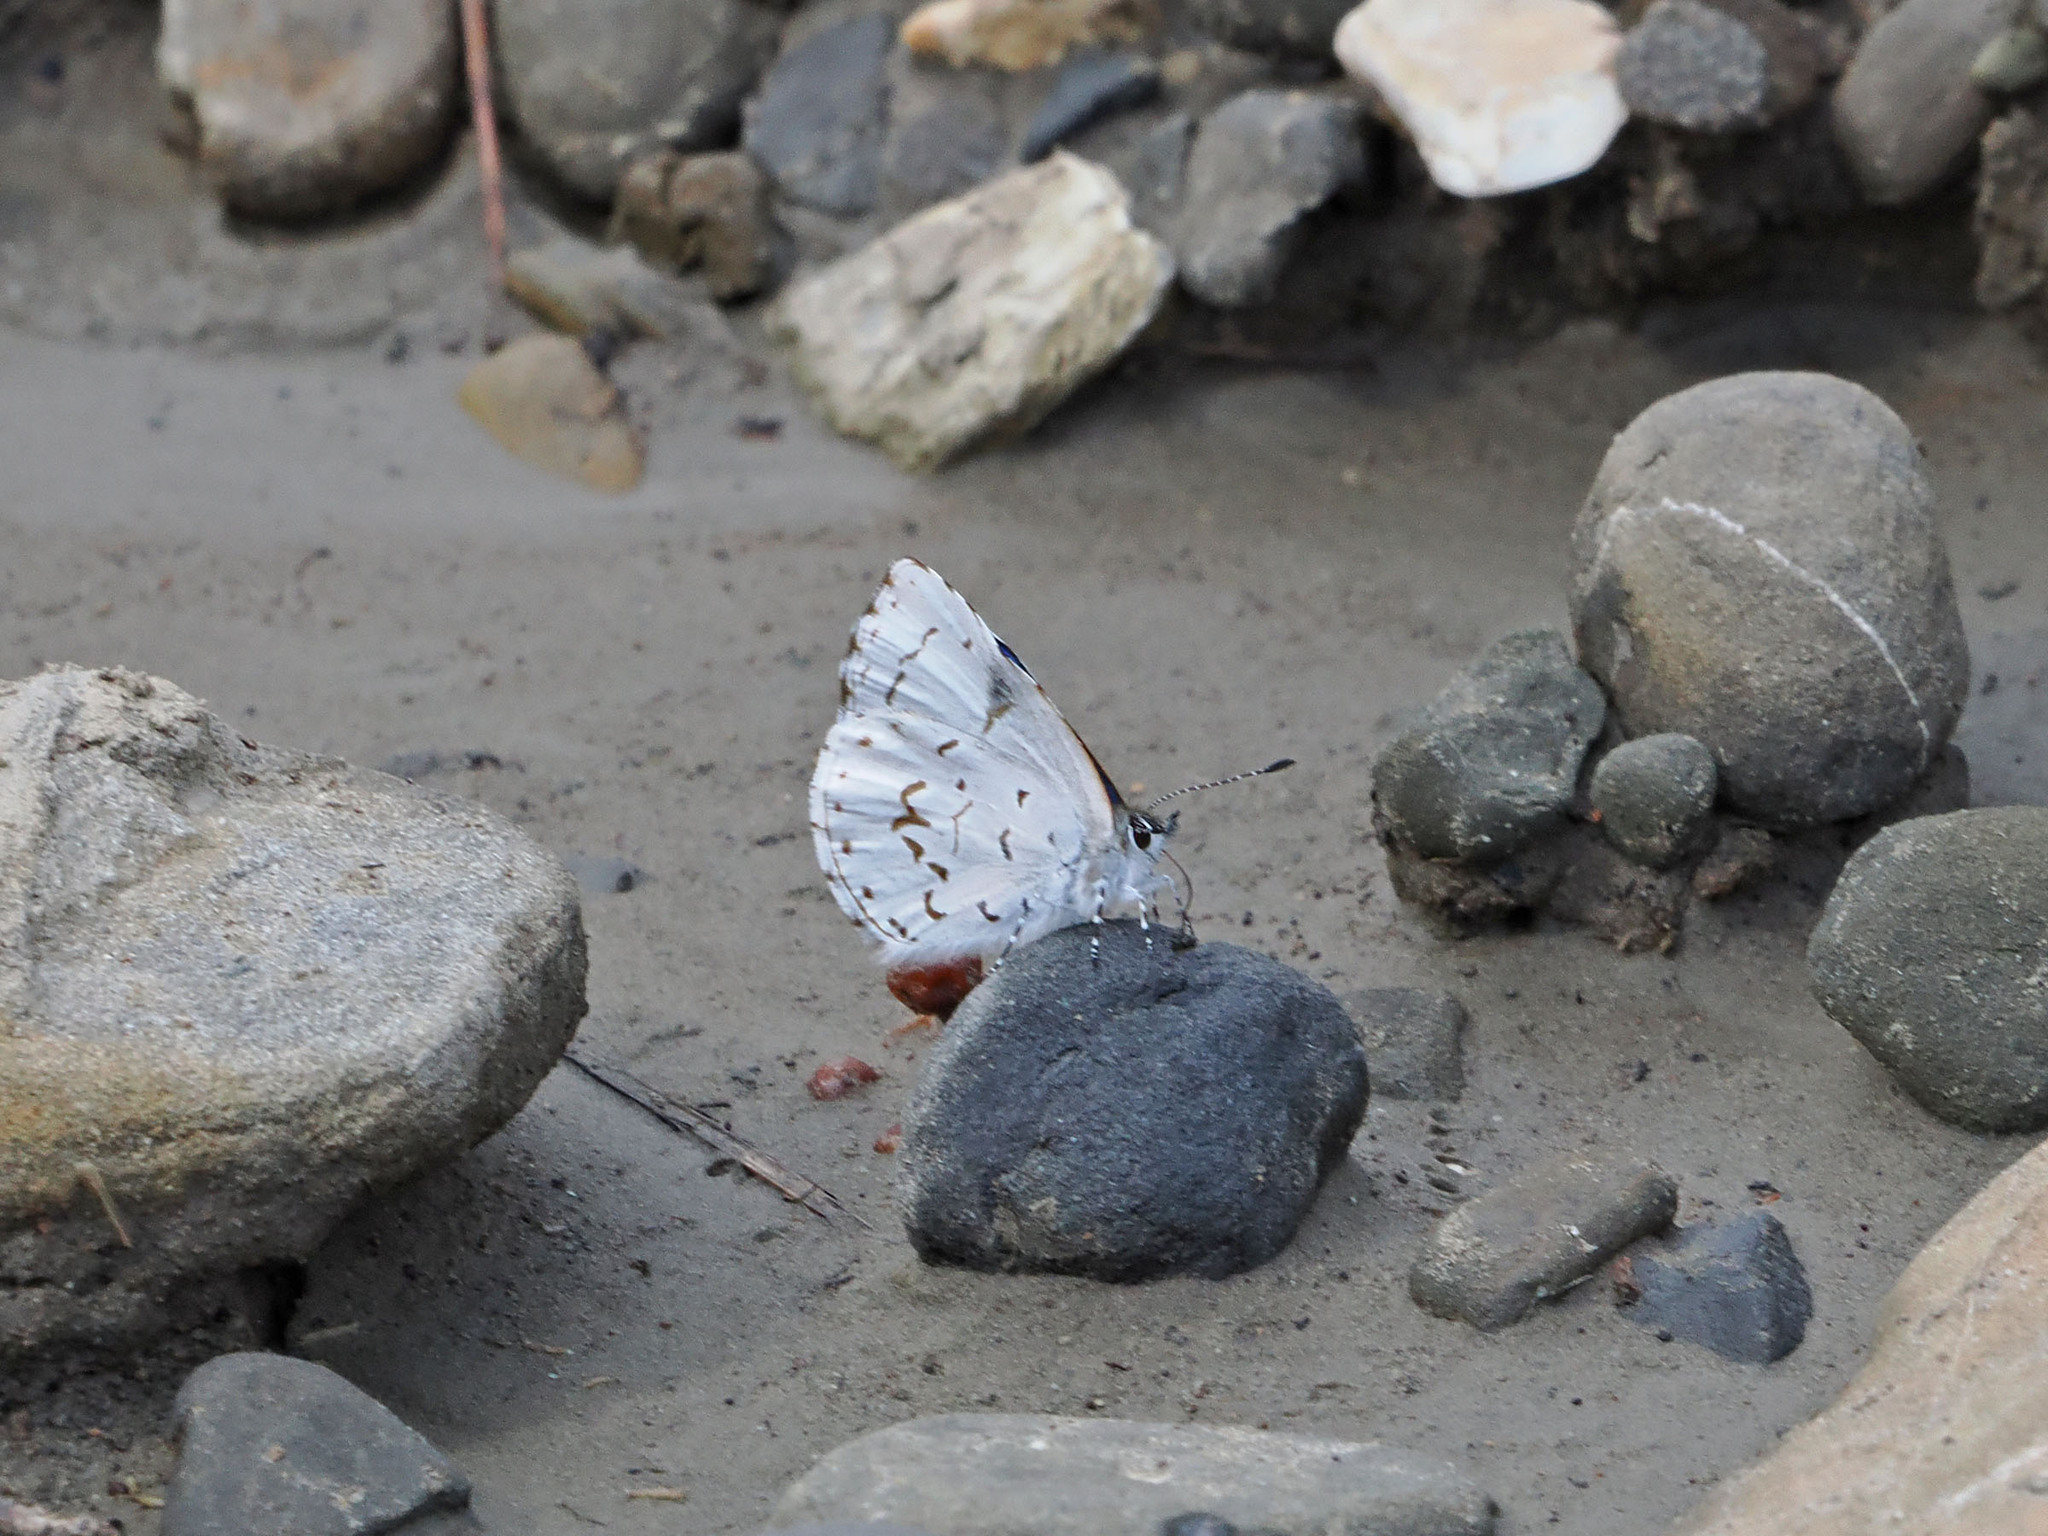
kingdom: Animalia
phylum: Arthropoda
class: Insecta
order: Lepidoptera
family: Lycaenidae
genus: Udara
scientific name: Udara drucei
